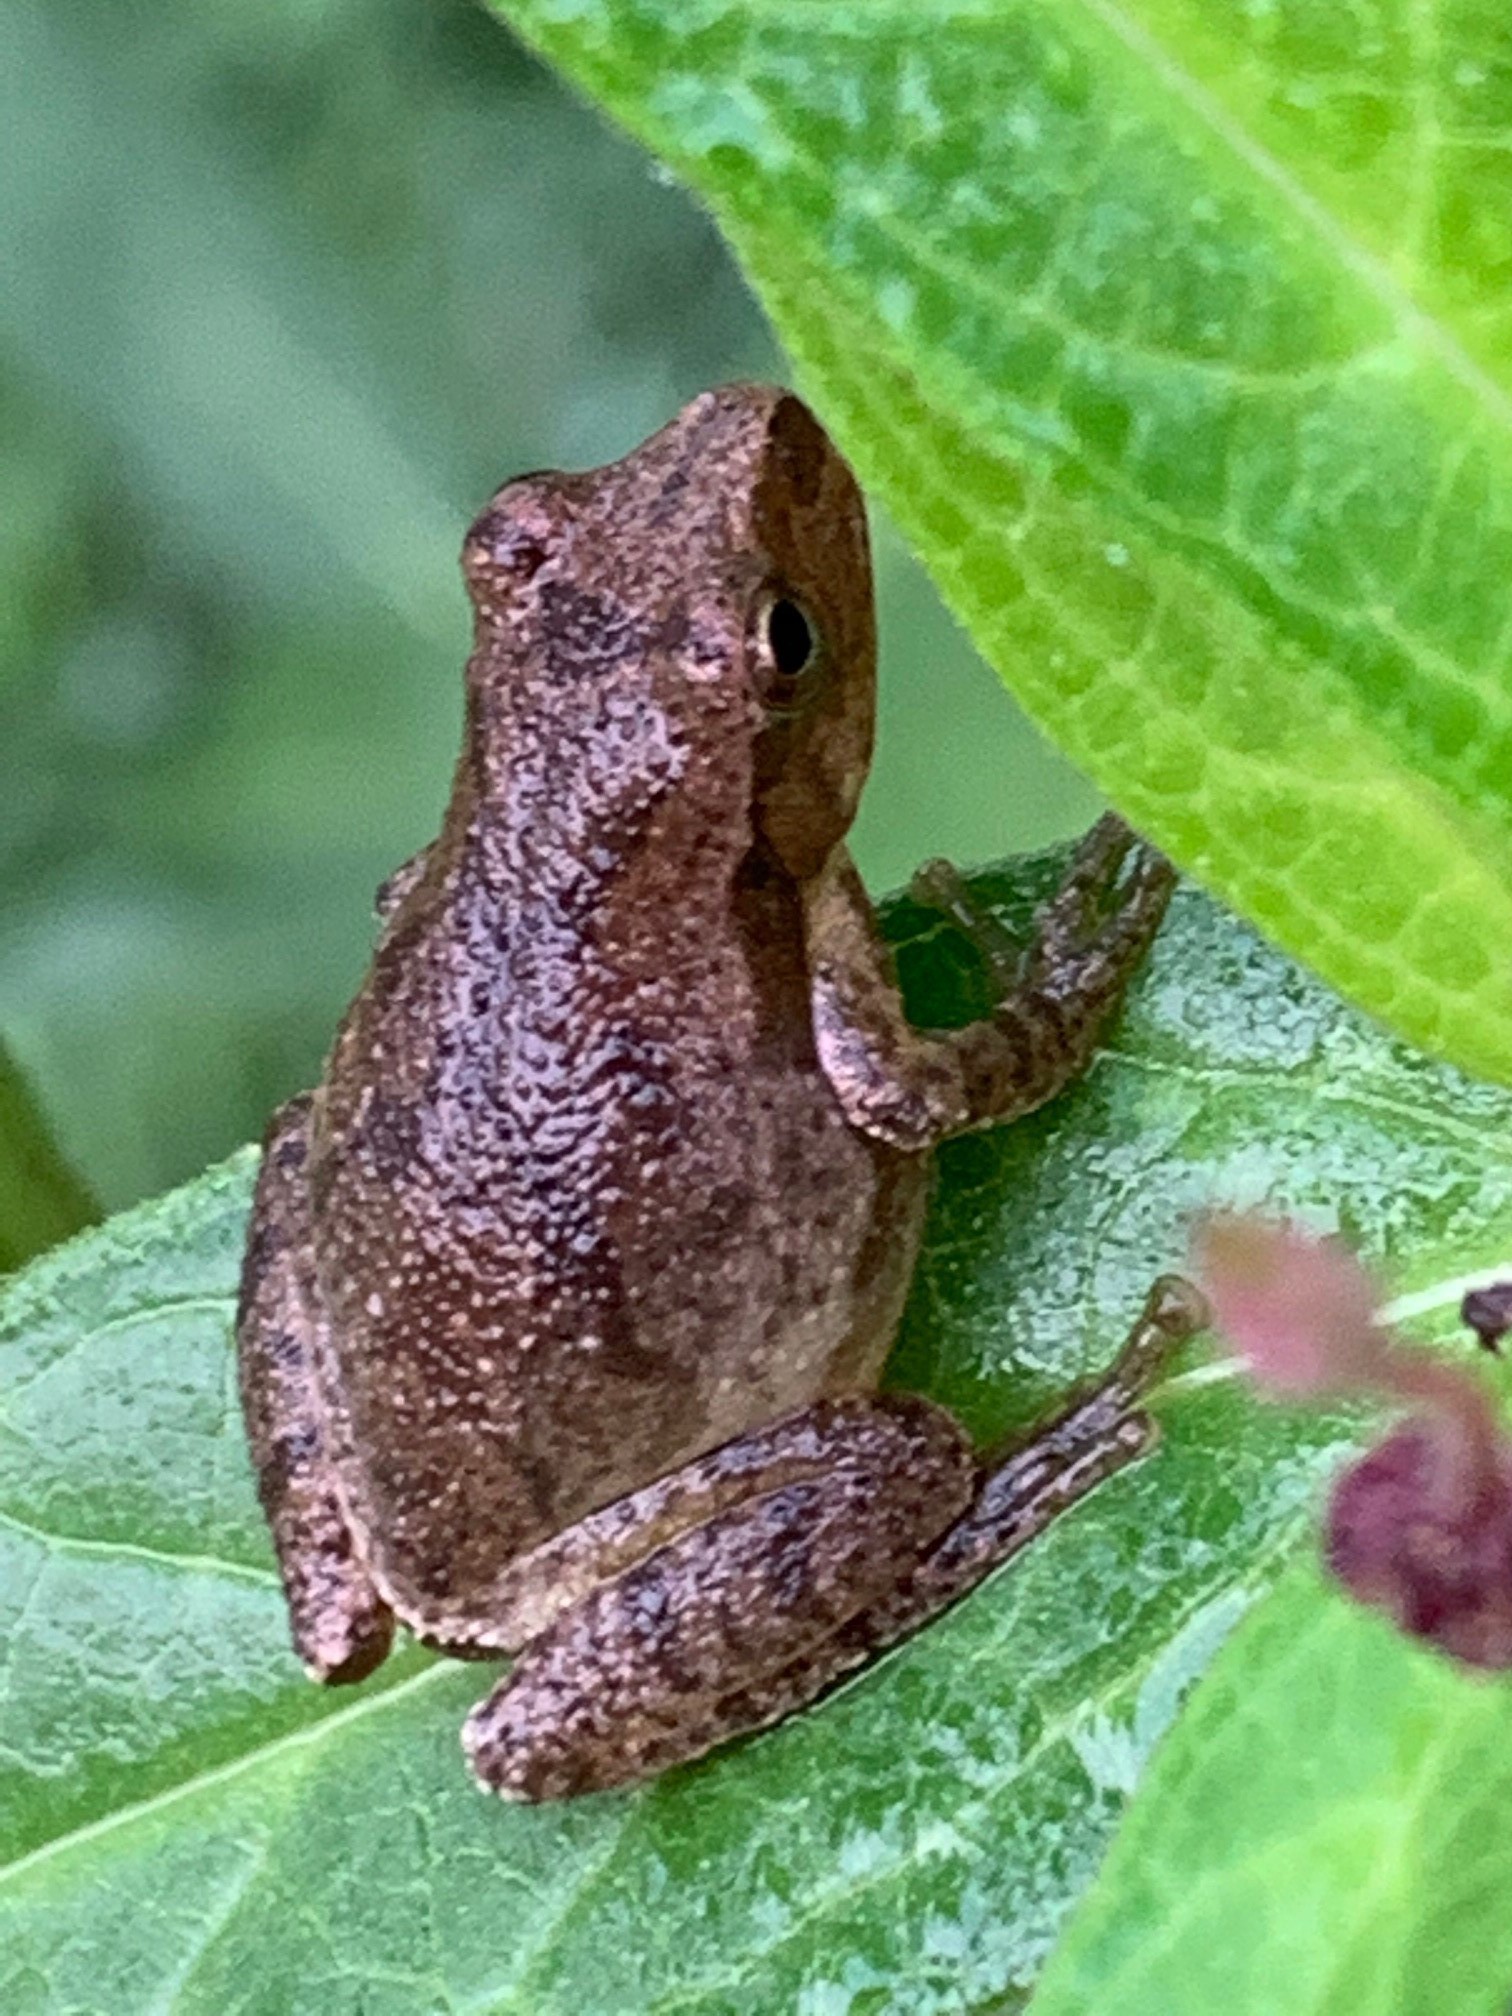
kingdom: Animalia
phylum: Chordata
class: Amphibia
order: Anura
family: Hylidae
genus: Pseudacris
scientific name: Pseudacris crucifer
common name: Spring peeper
